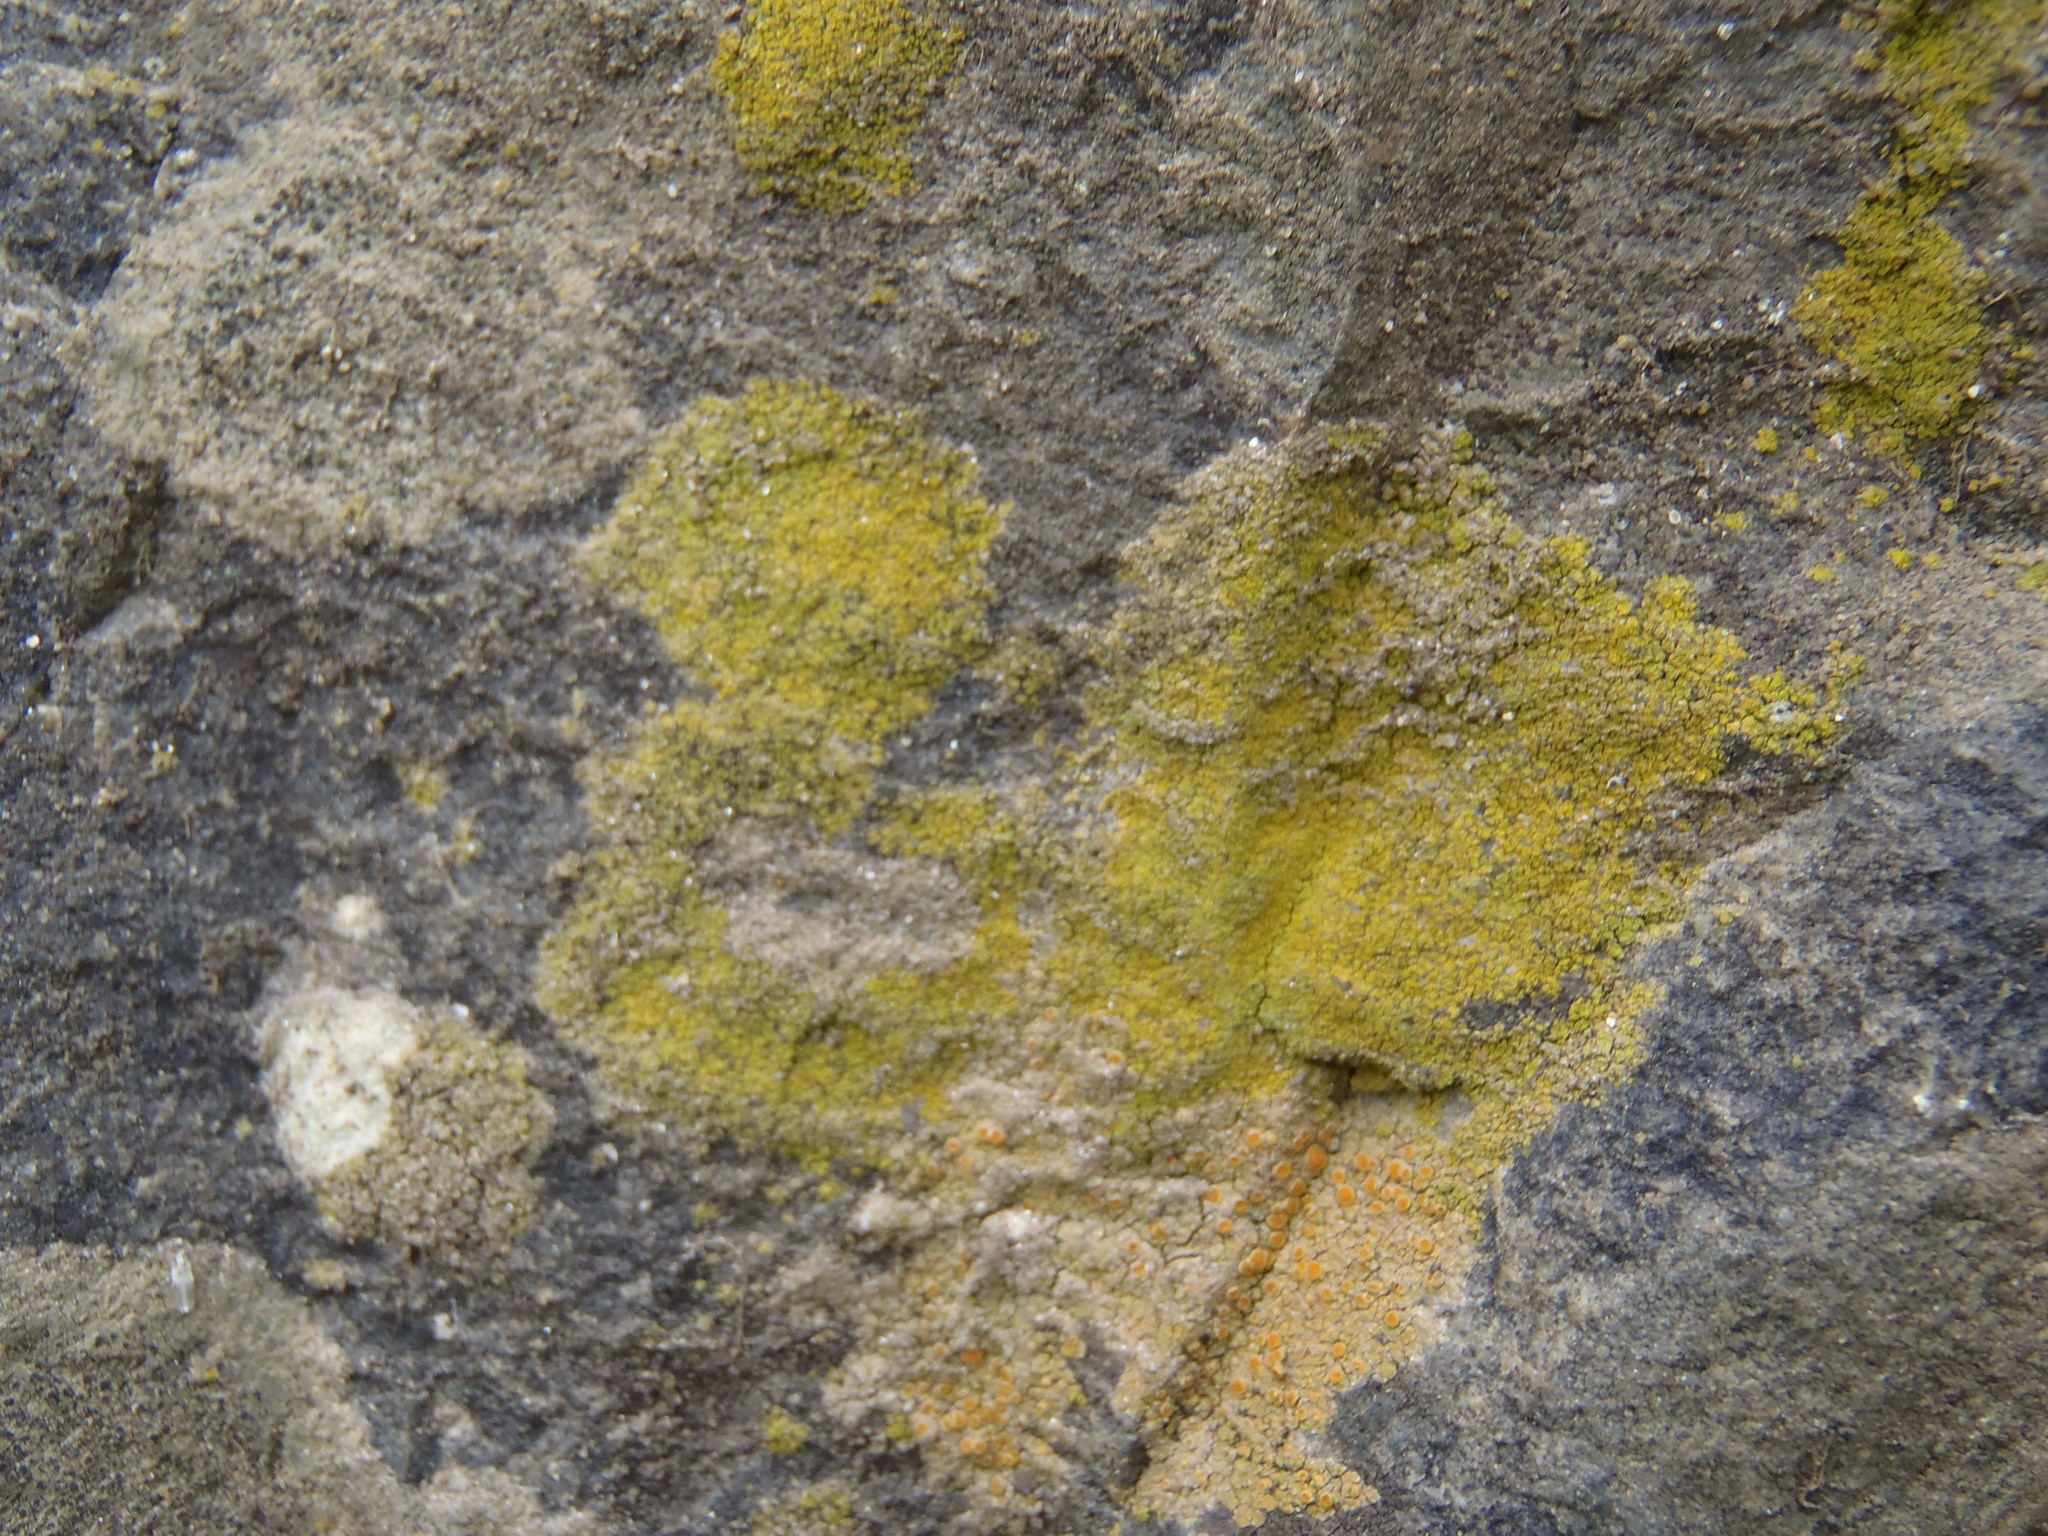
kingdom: Fungi
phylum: Ascomycota
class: Lecanoromycetes
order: Teloschistales
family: Teloschistaceae
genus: Flavoplaca
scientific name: Flavoplaca citrina
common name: Mealy firedot lichen
